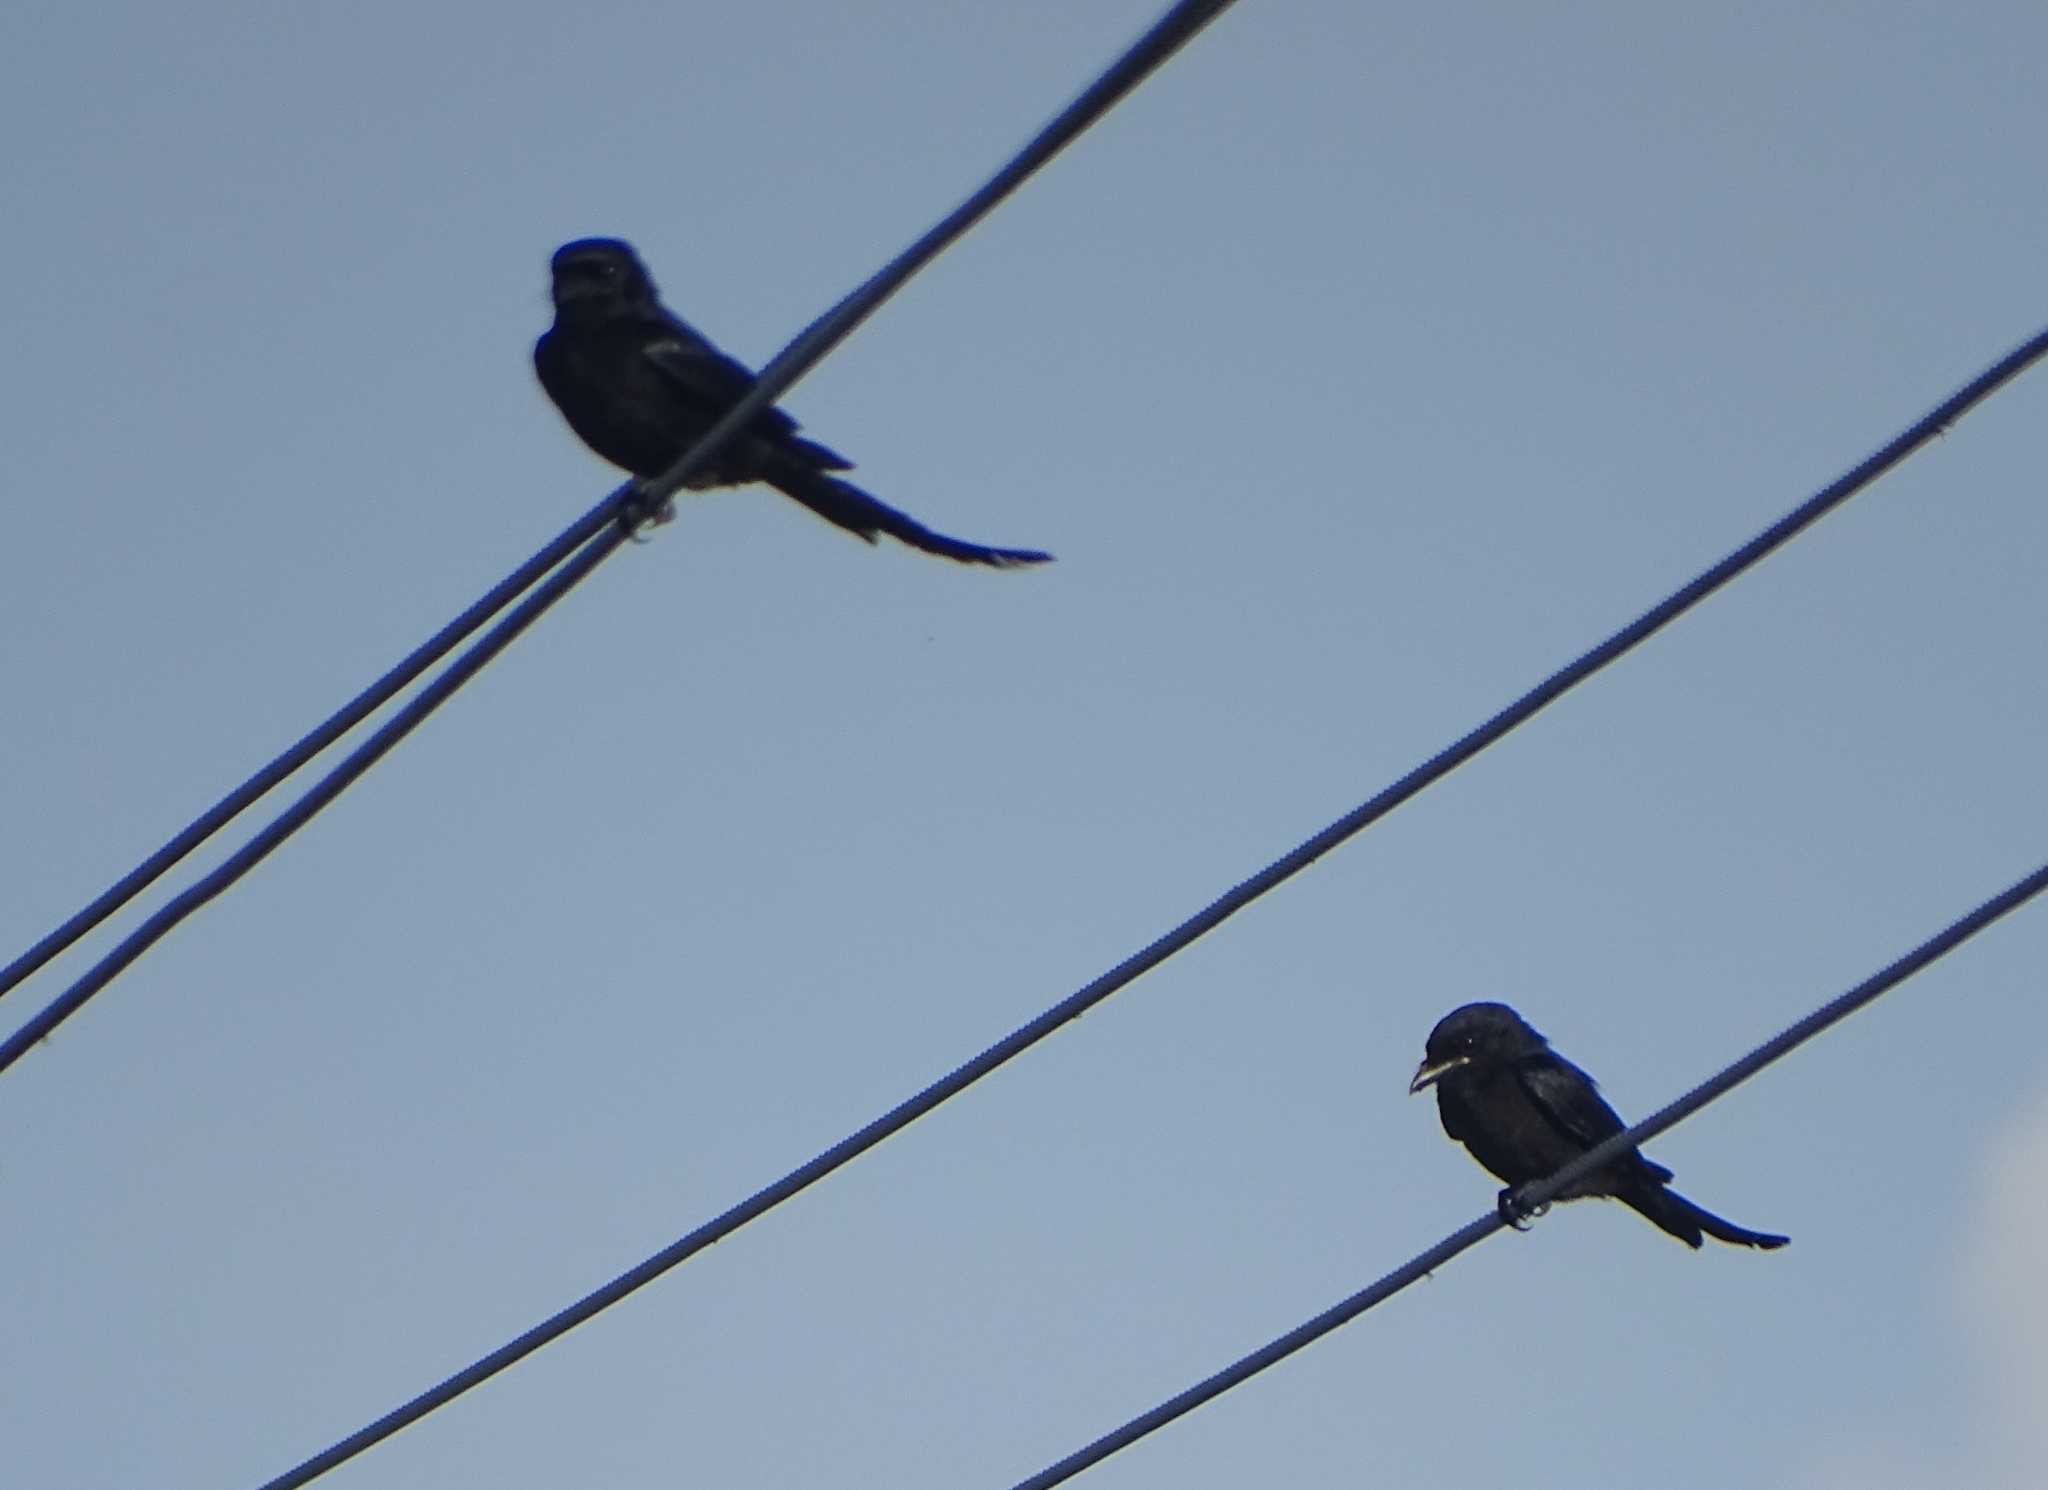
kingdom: Animalia
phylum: Chordata
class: Aves
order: Passeriformes
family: Dicruridae
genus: Dicrurus
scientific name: Dicrurus macrocercus
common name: Black drongo
